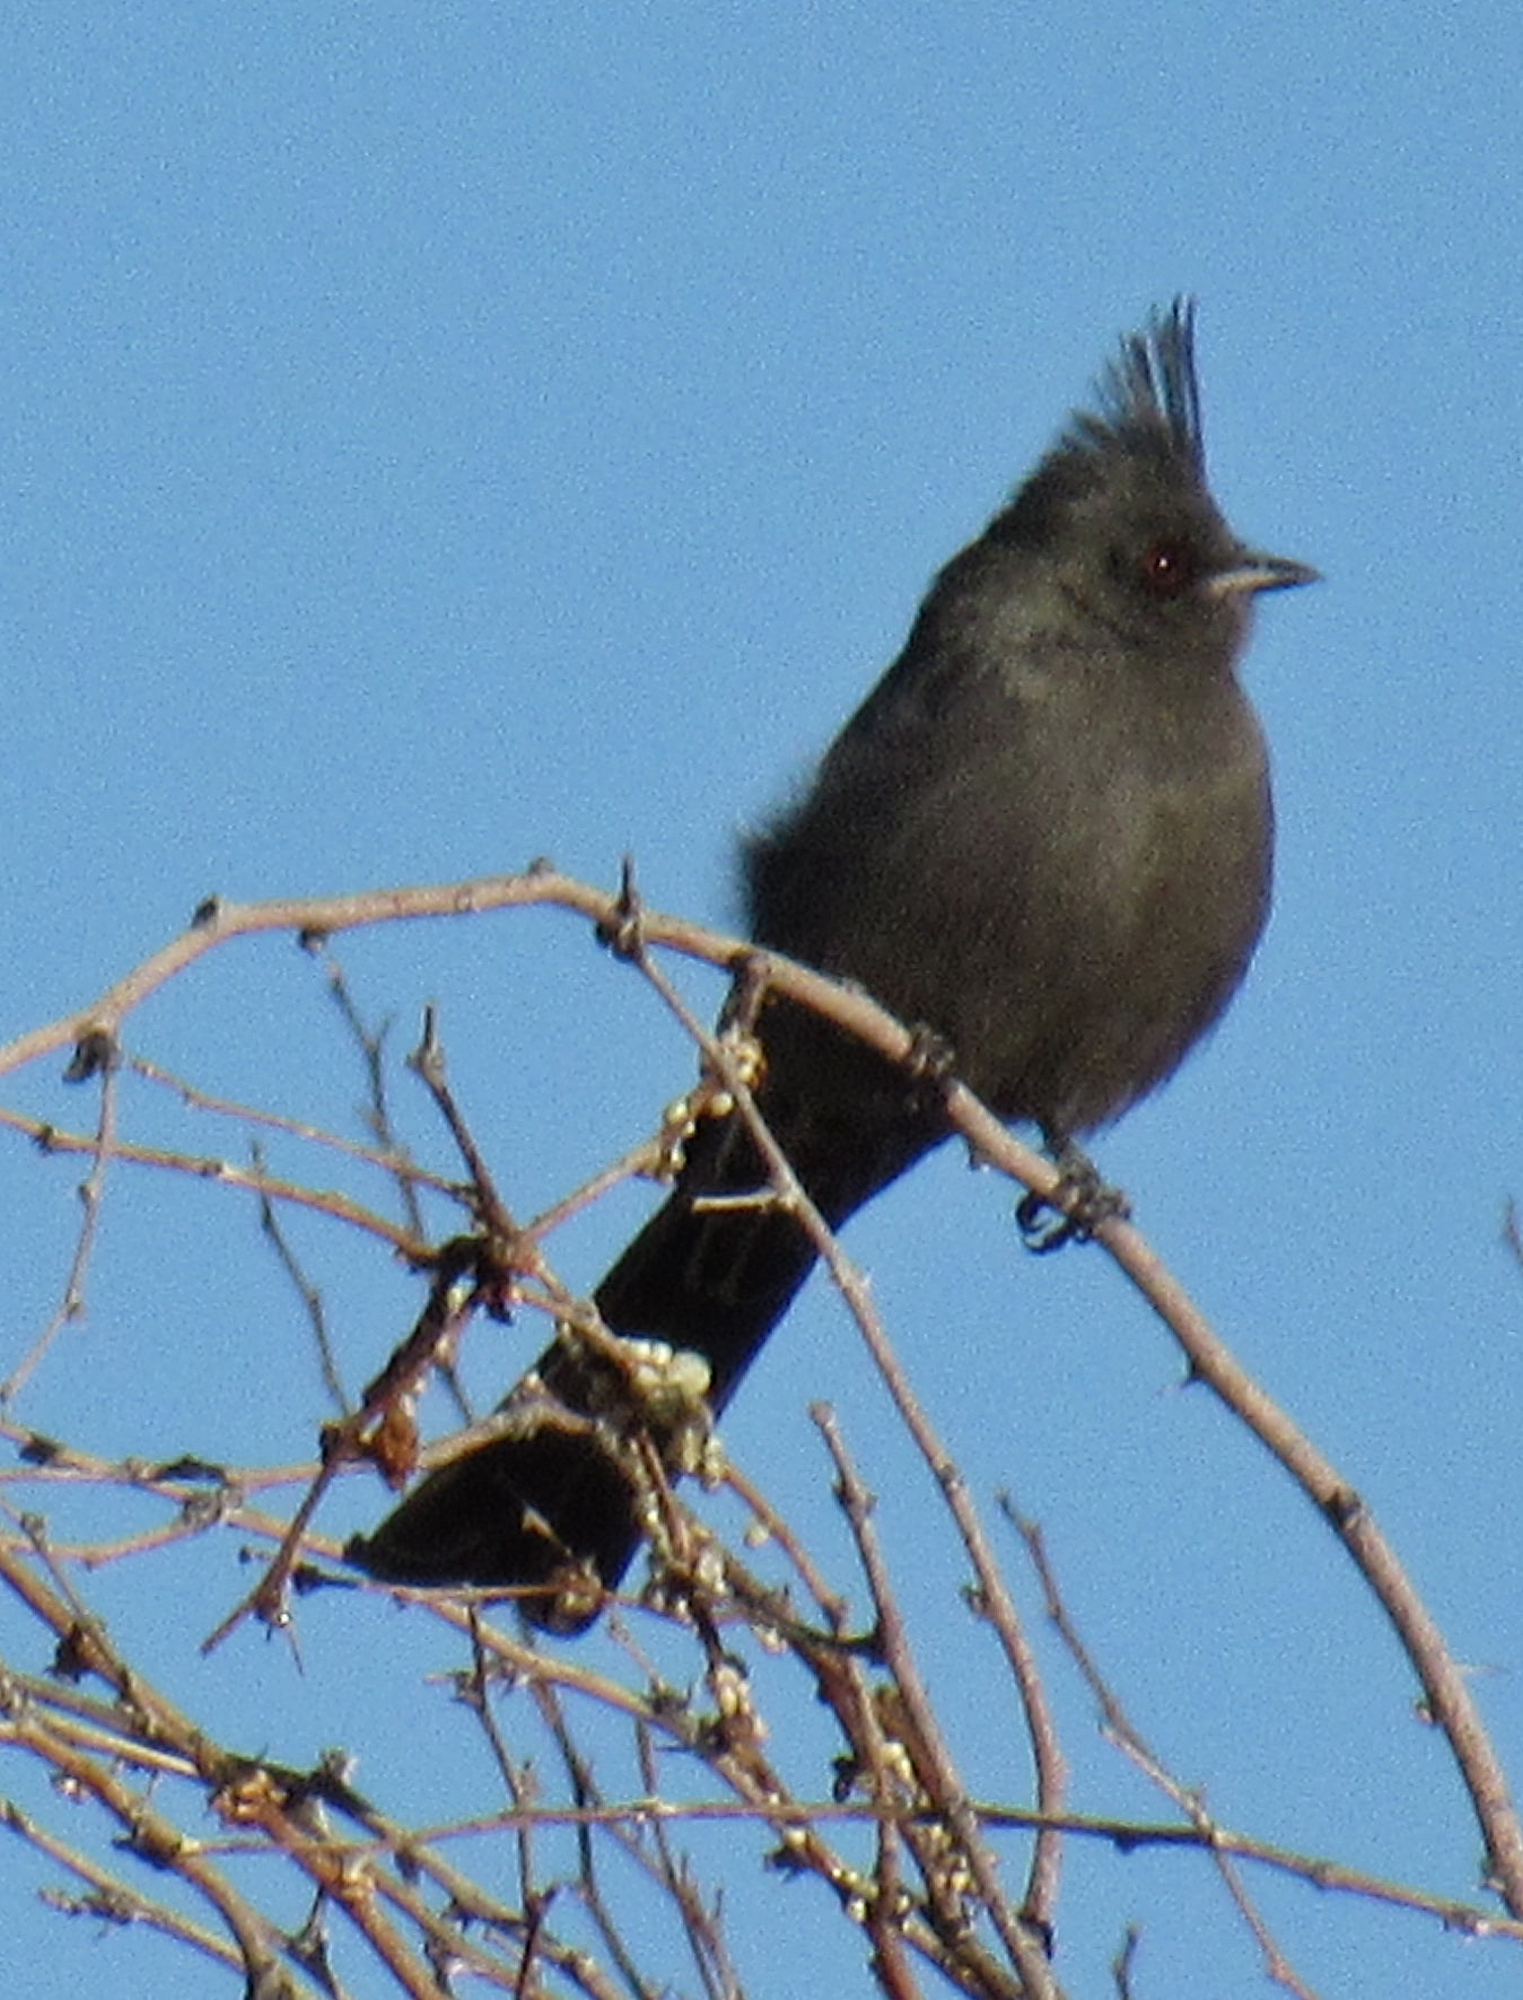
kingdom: Animalia
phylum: Chordata
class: Aves
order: Passeriformes
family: Ptilogonatidae
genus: Phainopepla
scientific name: Phainopepla nitens
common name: Phainopepla
